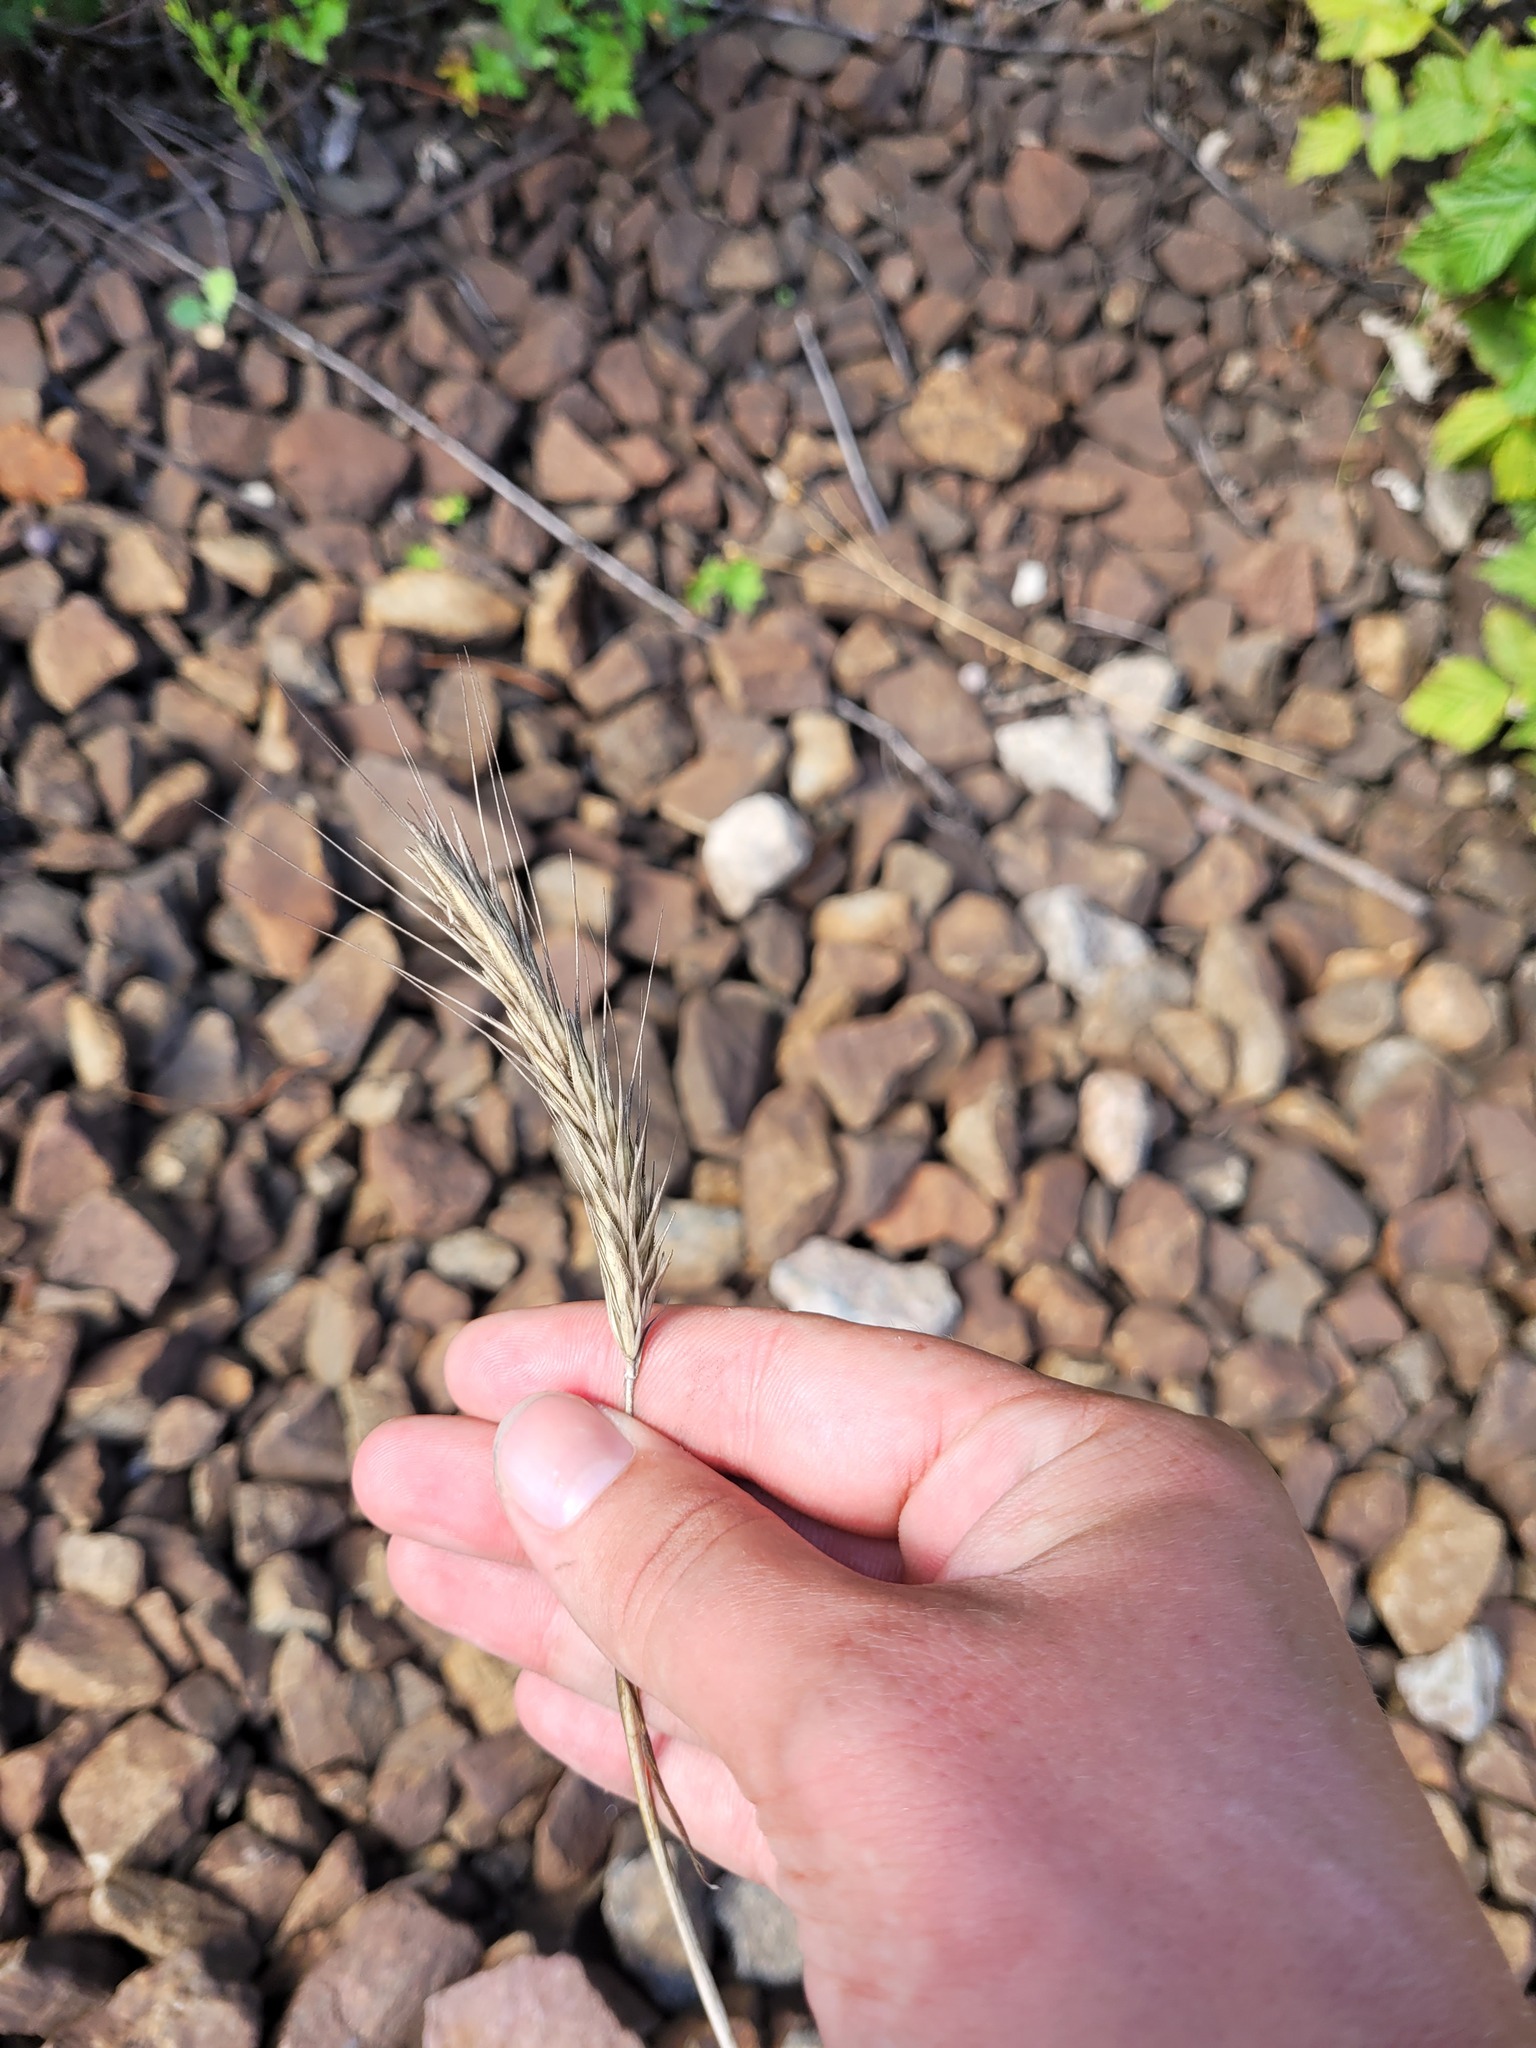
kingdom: Plantae
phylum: Tracheophyta
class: Liliopsida
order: Poales
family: Poaceae
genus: Secale
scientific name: Secale cereale
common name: Rye
